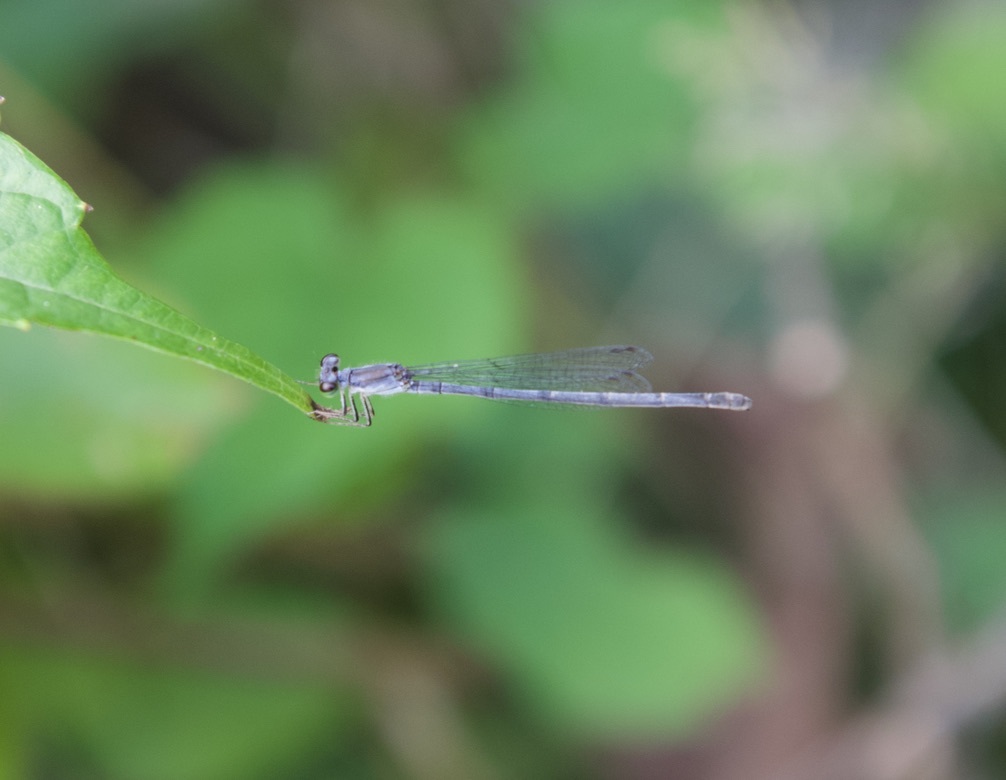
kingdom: Animalia
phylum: Arthropoda
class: Insecta
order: Odonata
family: Coenagrionidae
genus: Ischnura
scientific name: Ischnura posita
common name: Fragile forktail
